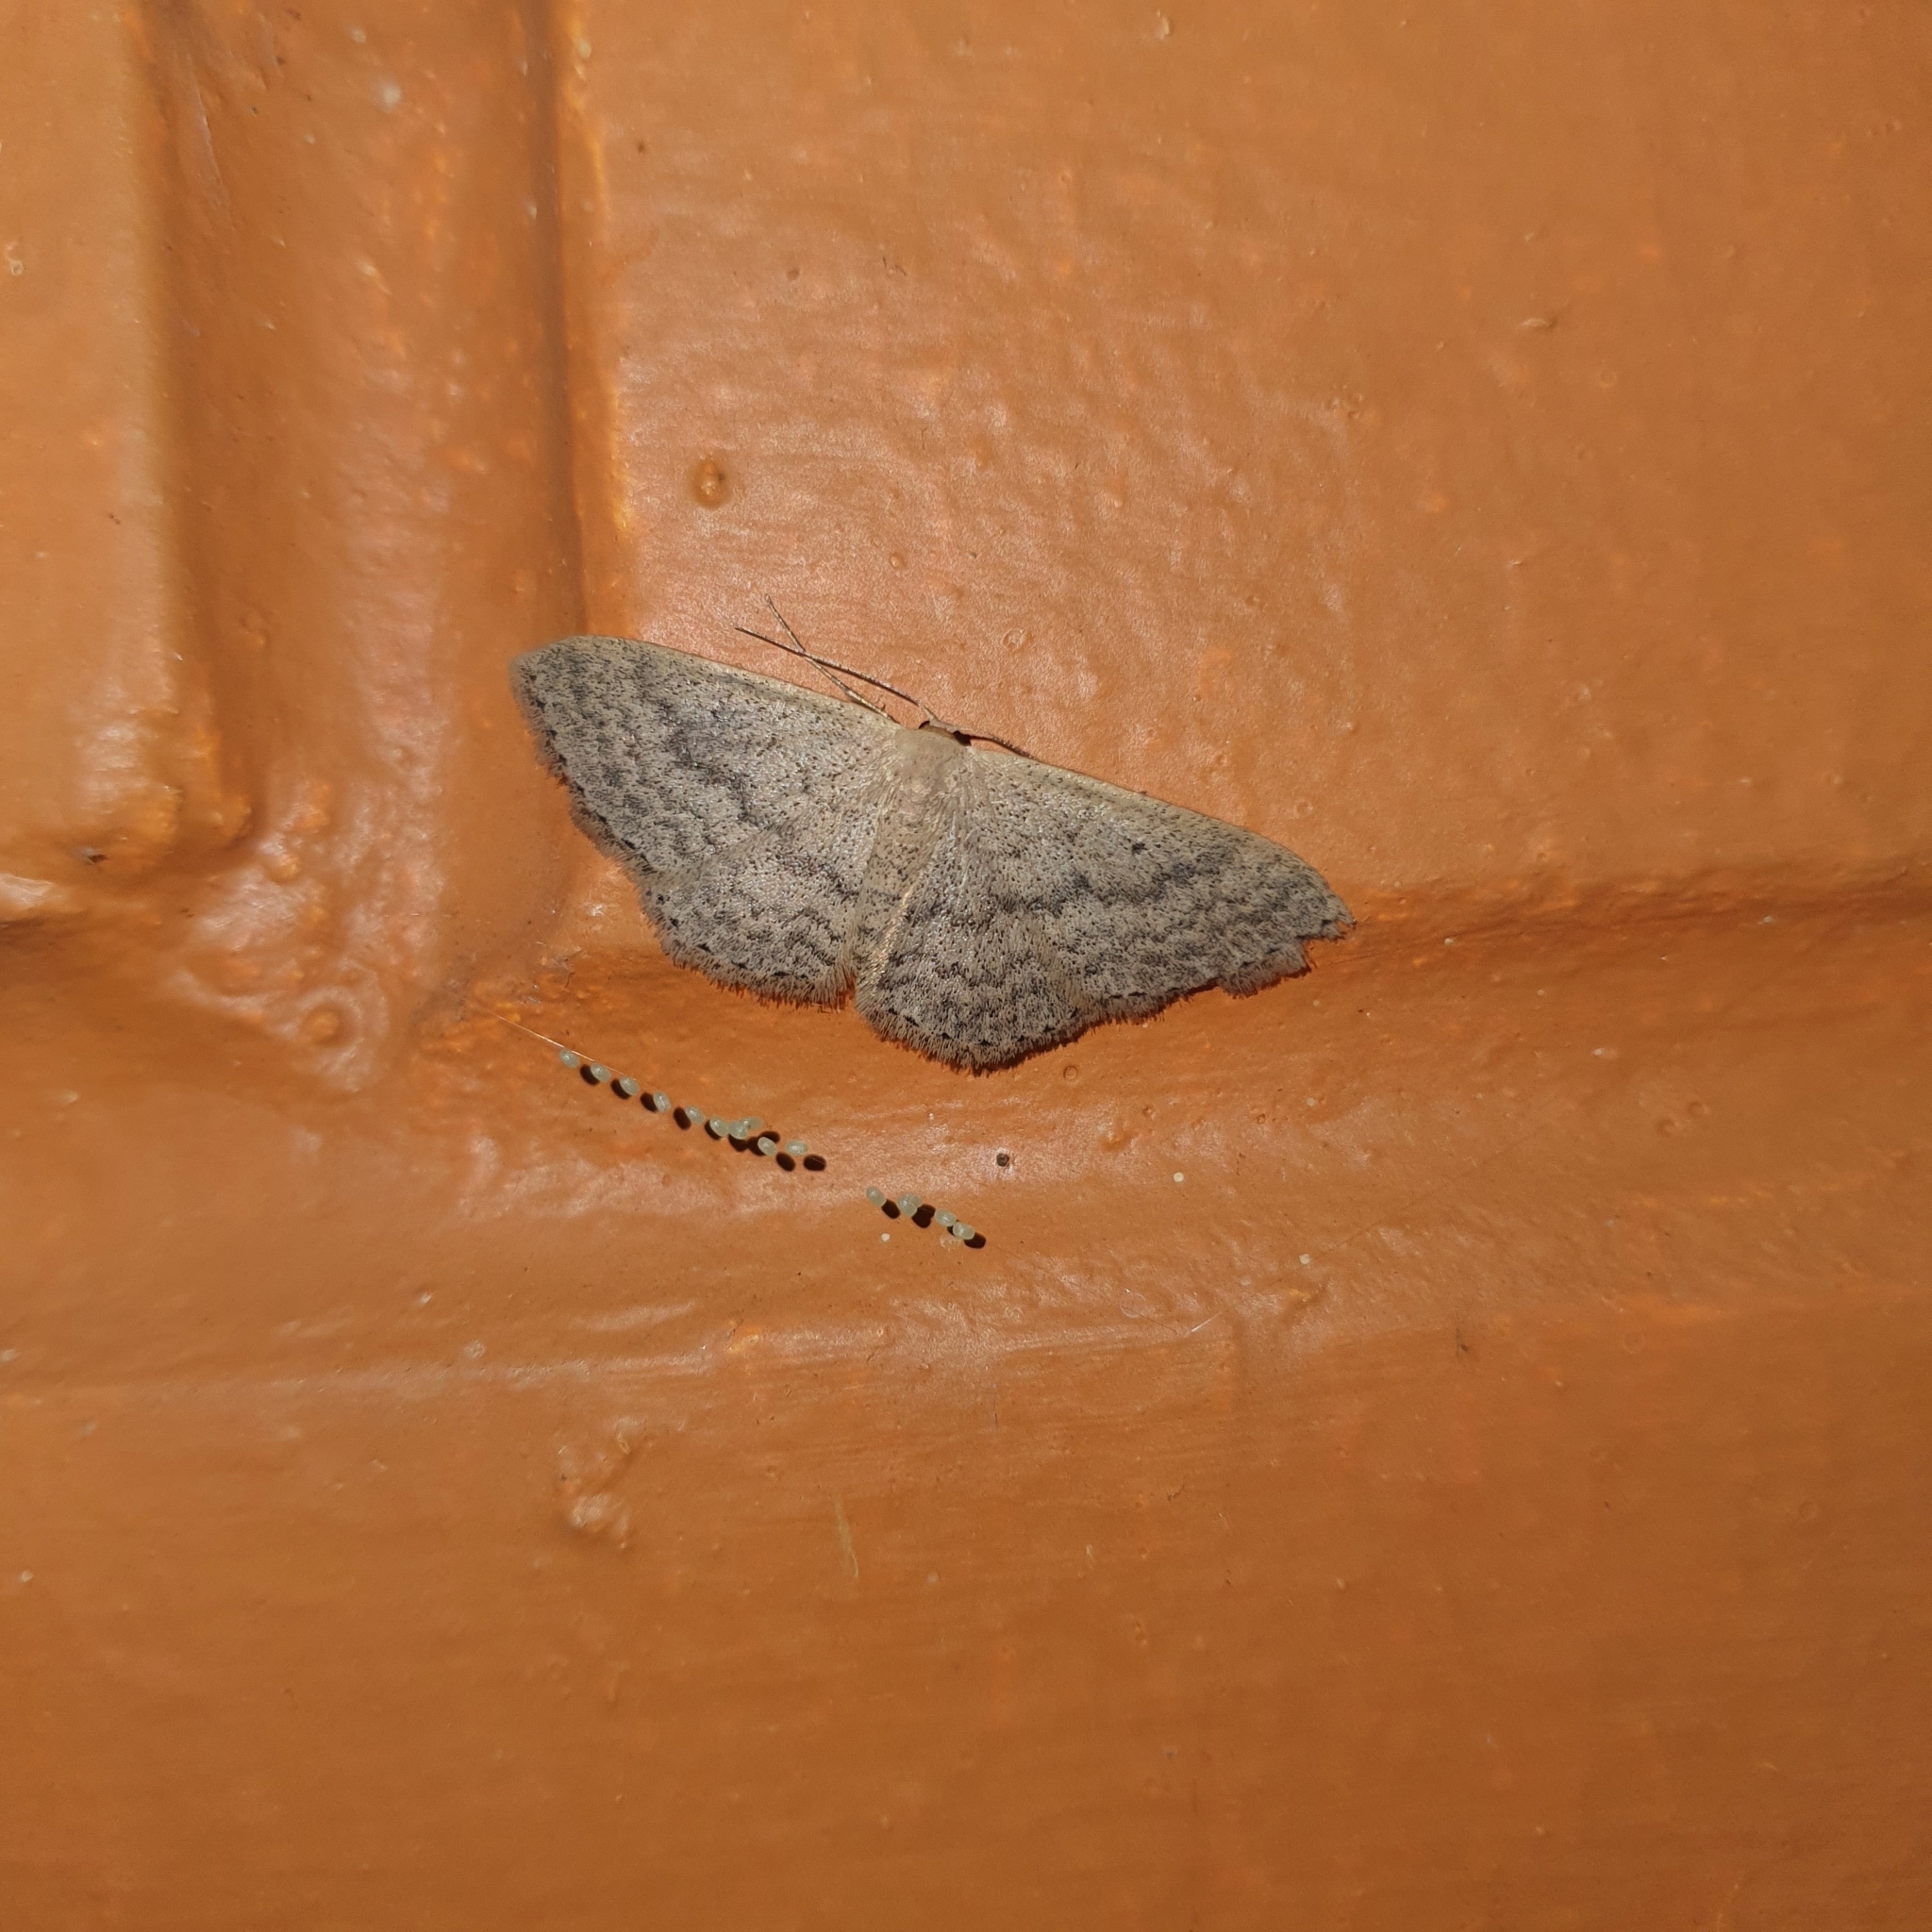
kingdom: Animalia
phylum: Arthropoda
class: Insecta
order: Lepidoptera
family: Geometridae
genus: Scopula
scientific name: Scopula optivata
